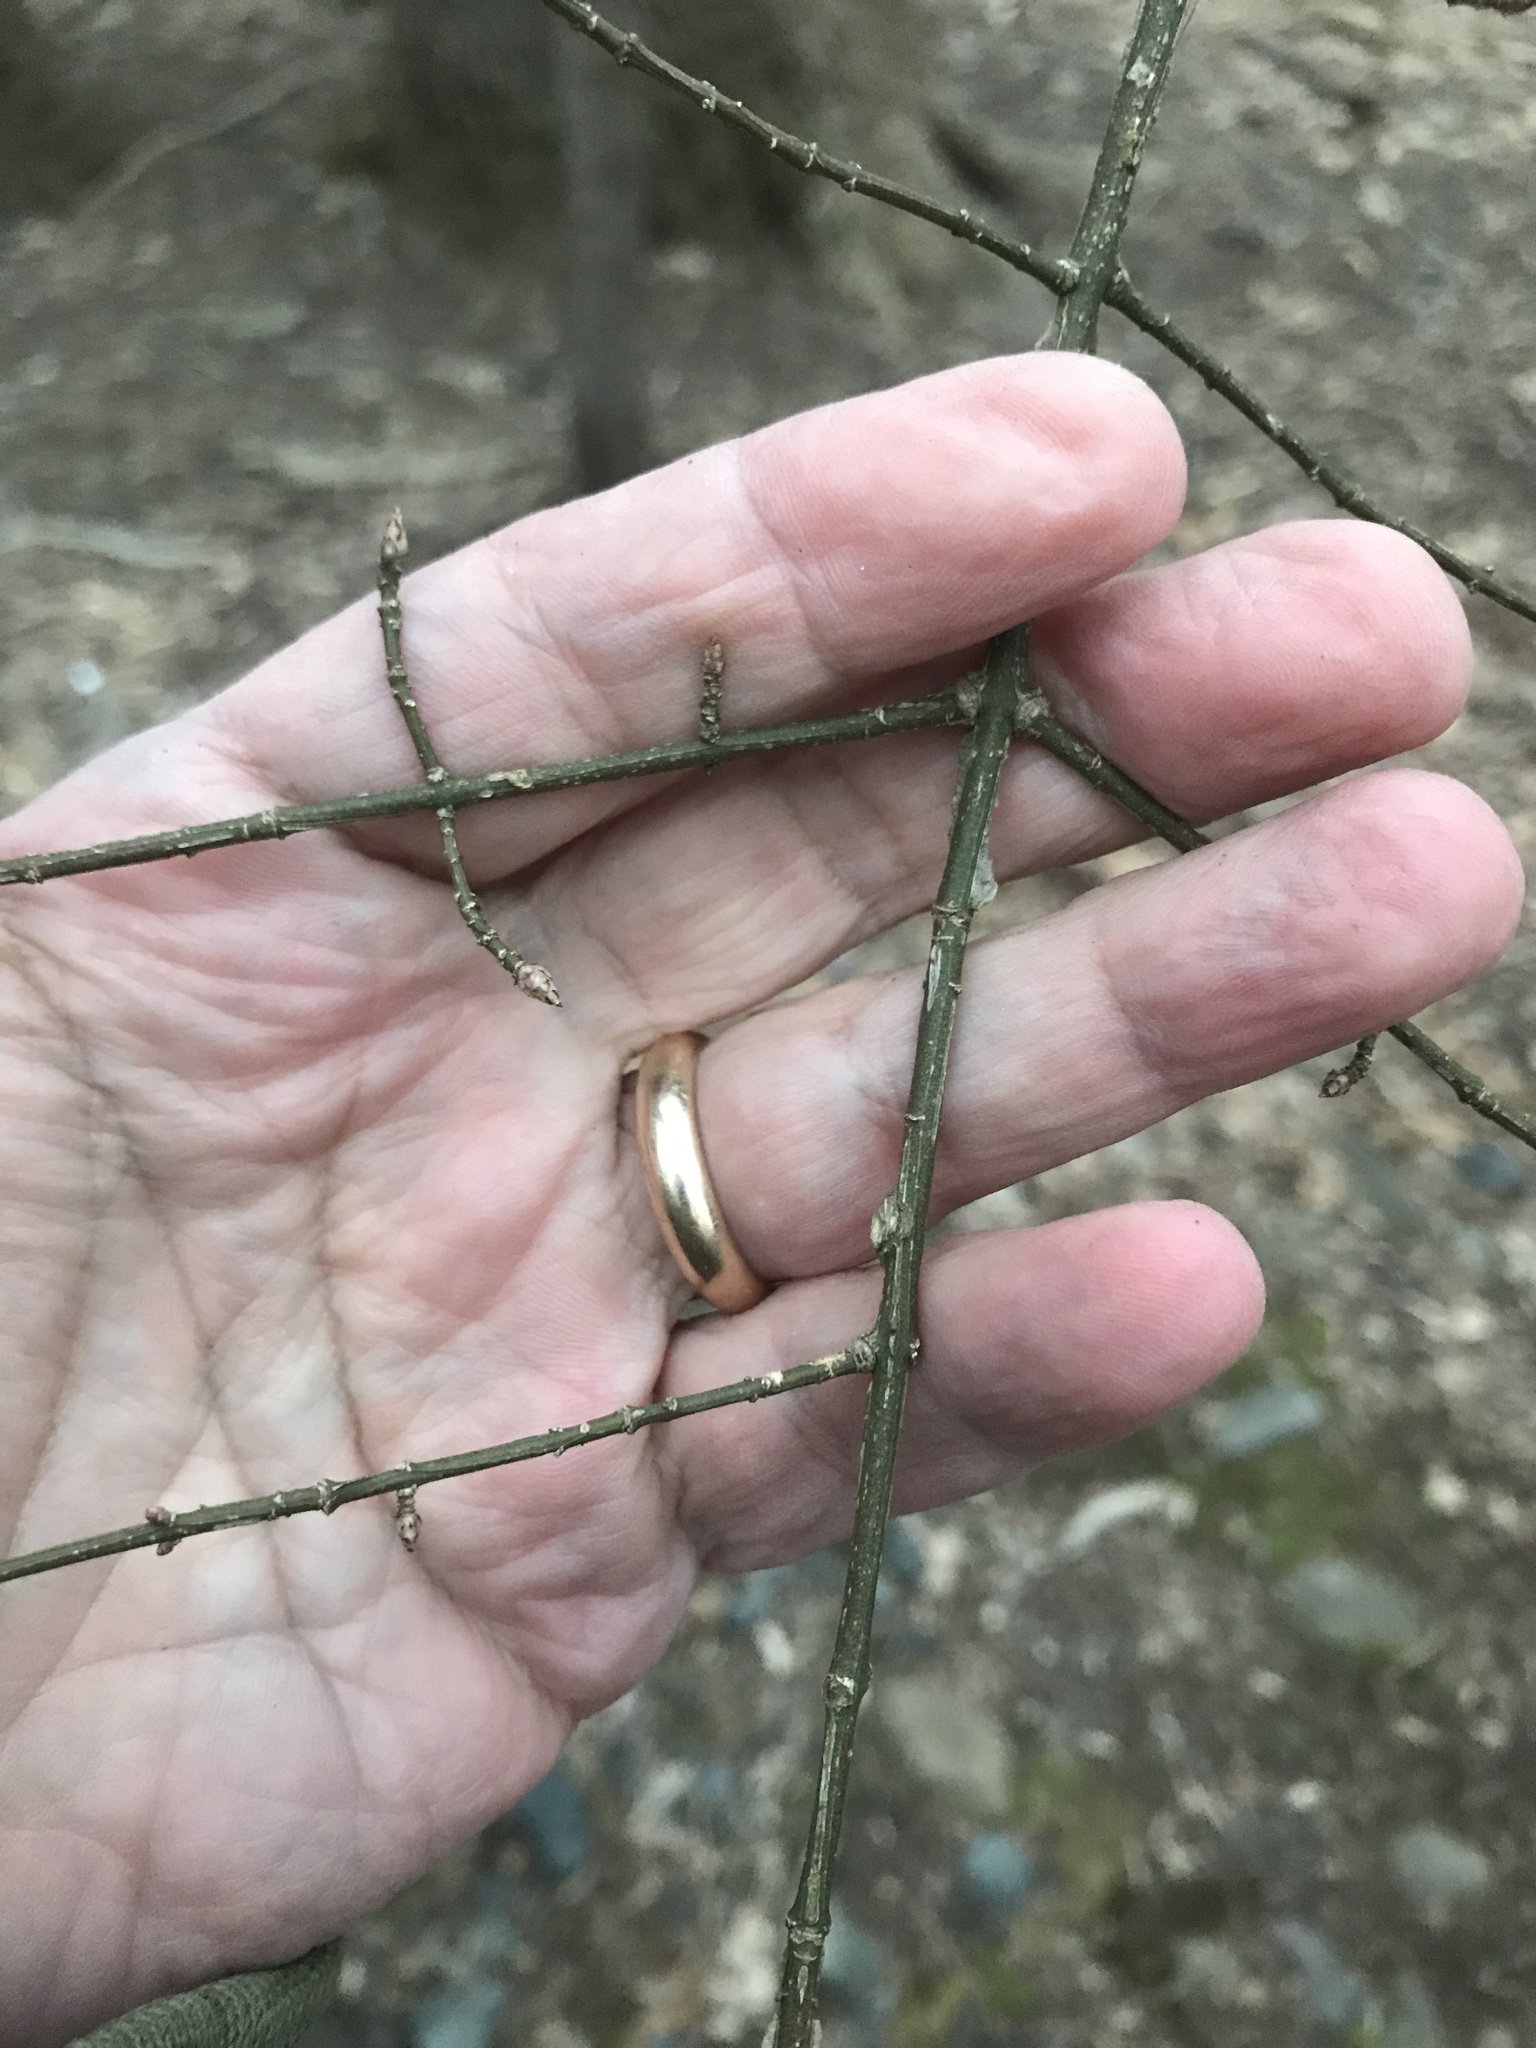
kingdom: Plantae
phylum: Tracheophyta
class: Magnoliopsida
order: Celastrales
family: Celastraceae
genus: Euonymus
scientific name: Euonymus alatus
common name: Winged euonymus
